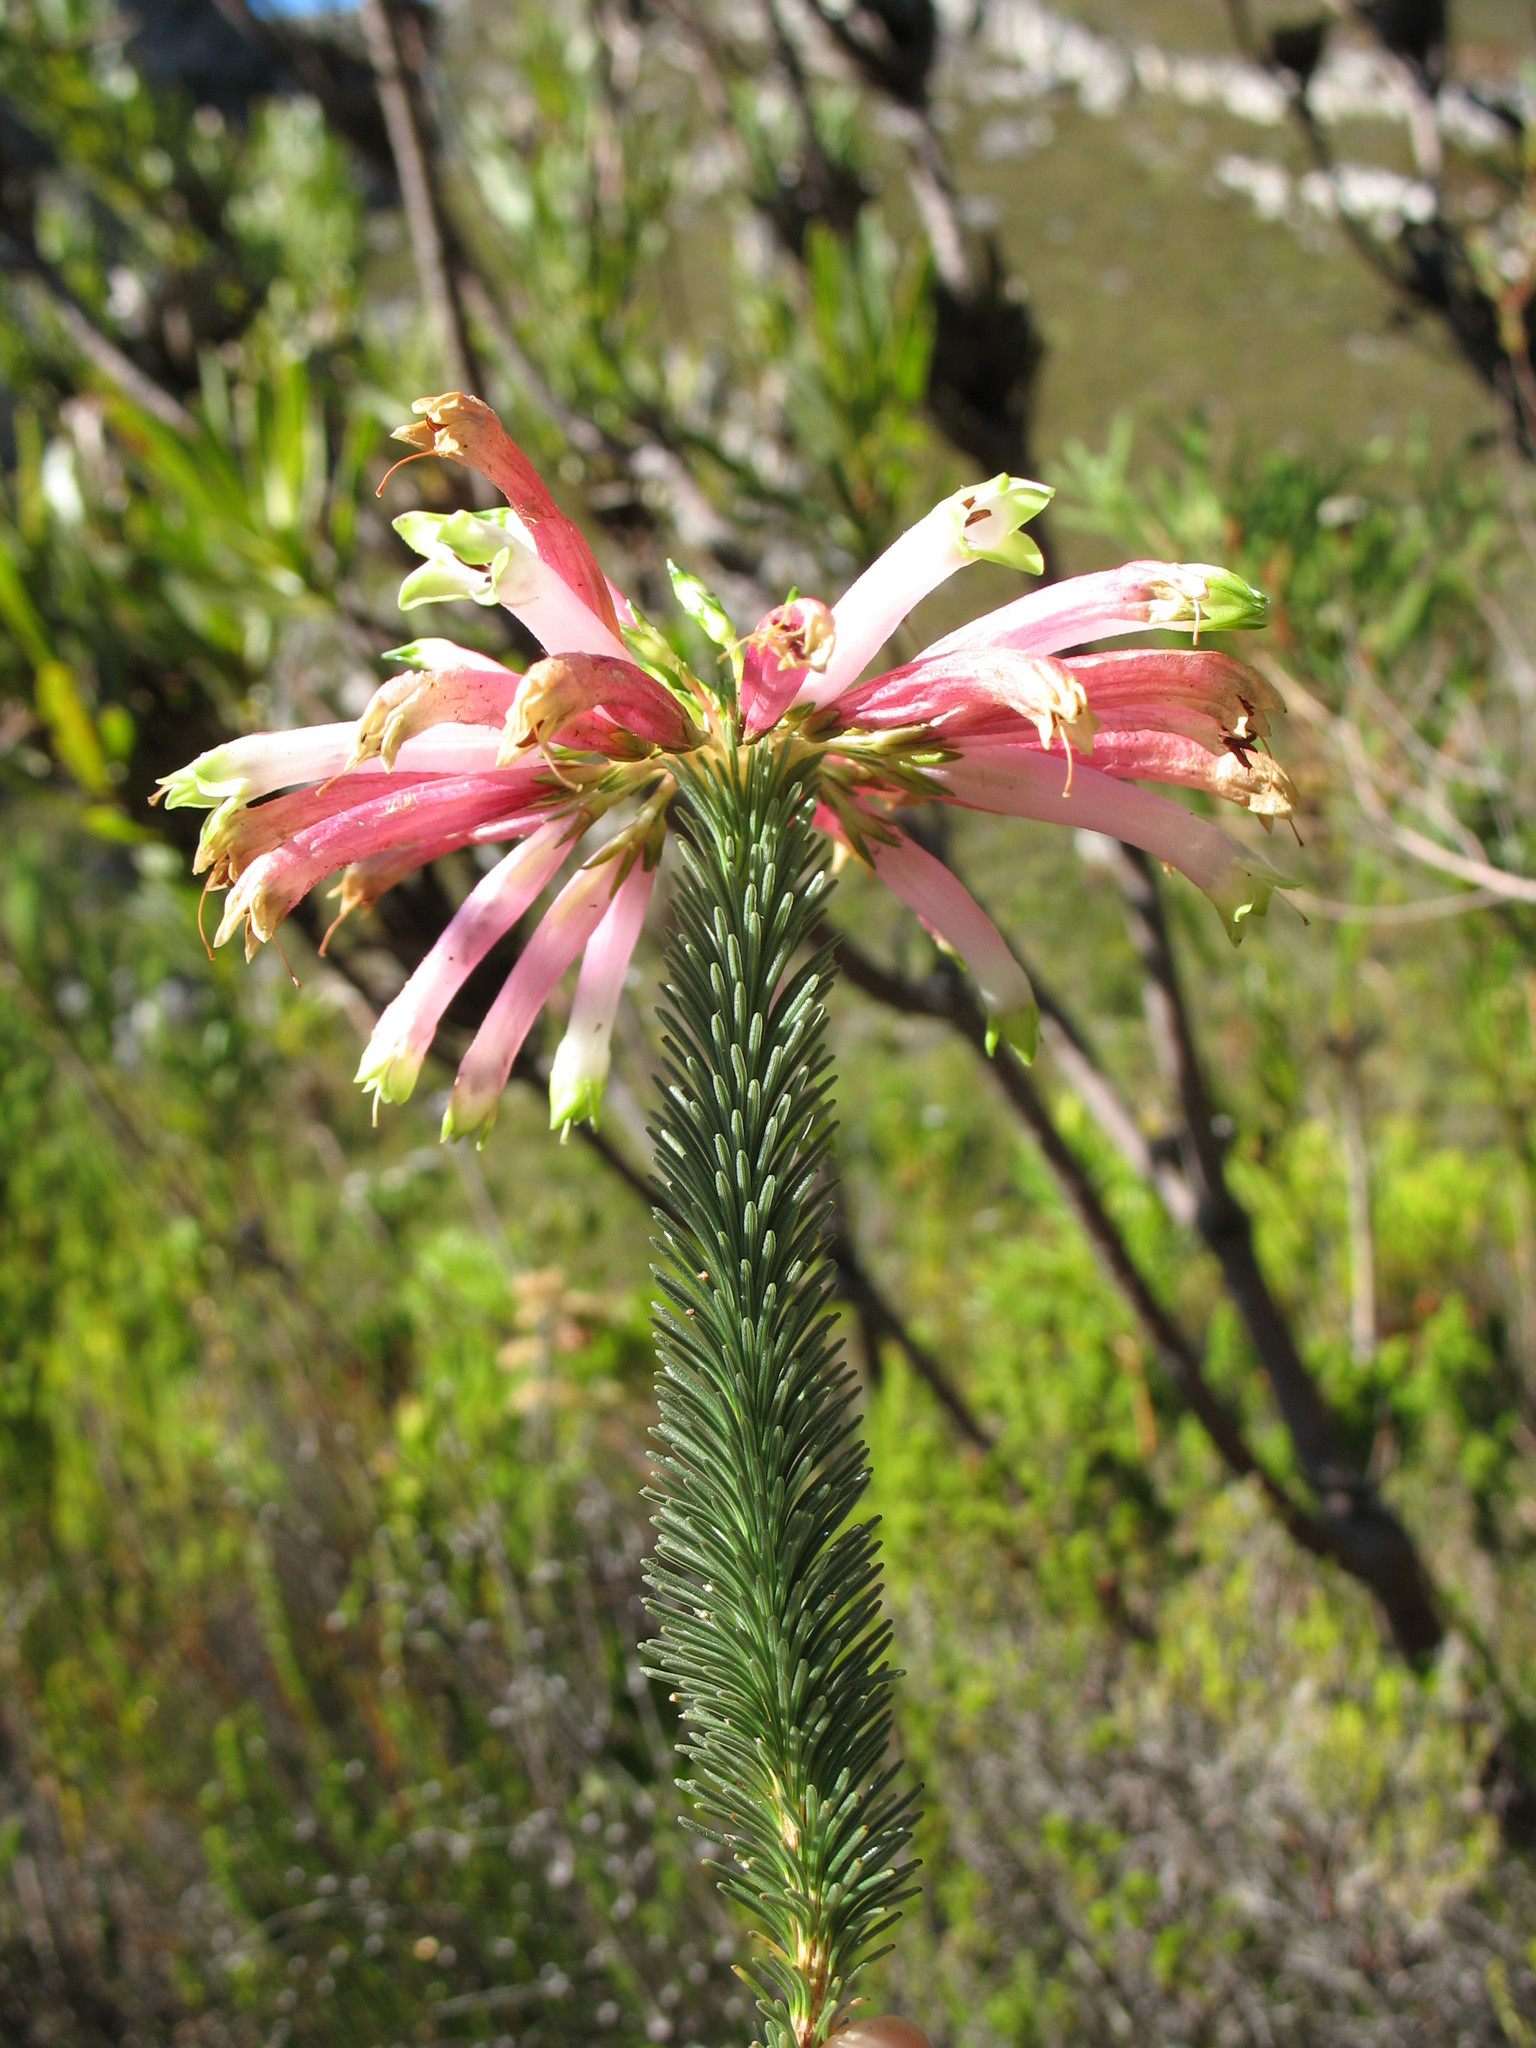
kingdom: Plantae
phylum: Tracheophyta
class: Magnoliopsida
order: Ericales
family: Ericaceae
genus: Erica
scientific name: Erica fascicularis
